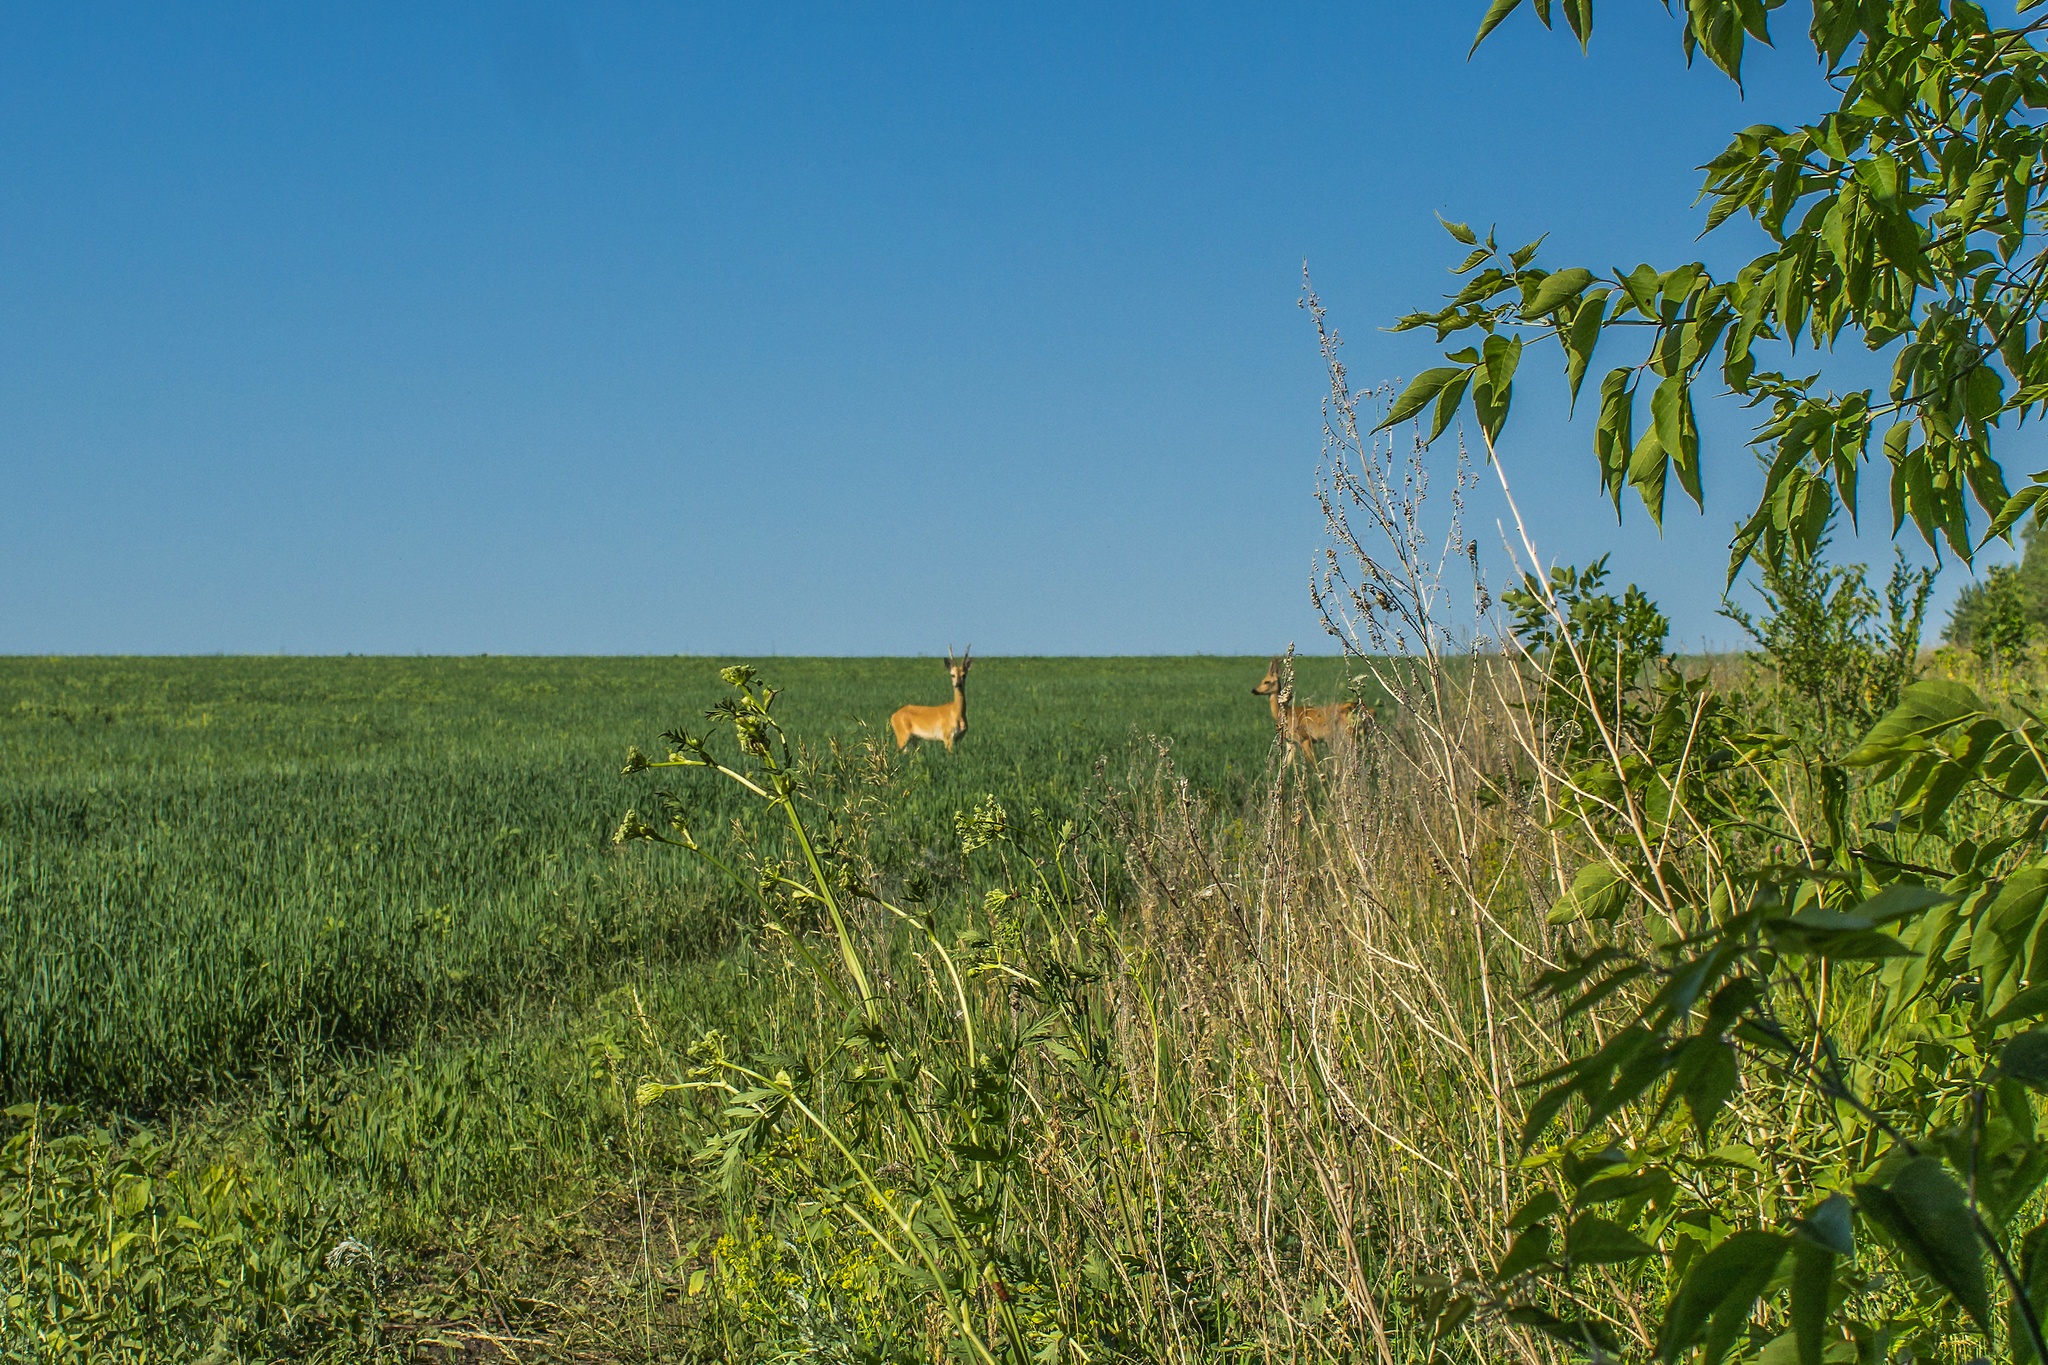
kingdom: Animalia
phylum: Chordata
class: Mammalia
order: Artiodactyla
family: Cervidae
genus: Capreolus
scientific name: Capreolus pygargus
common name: Siberian roe
